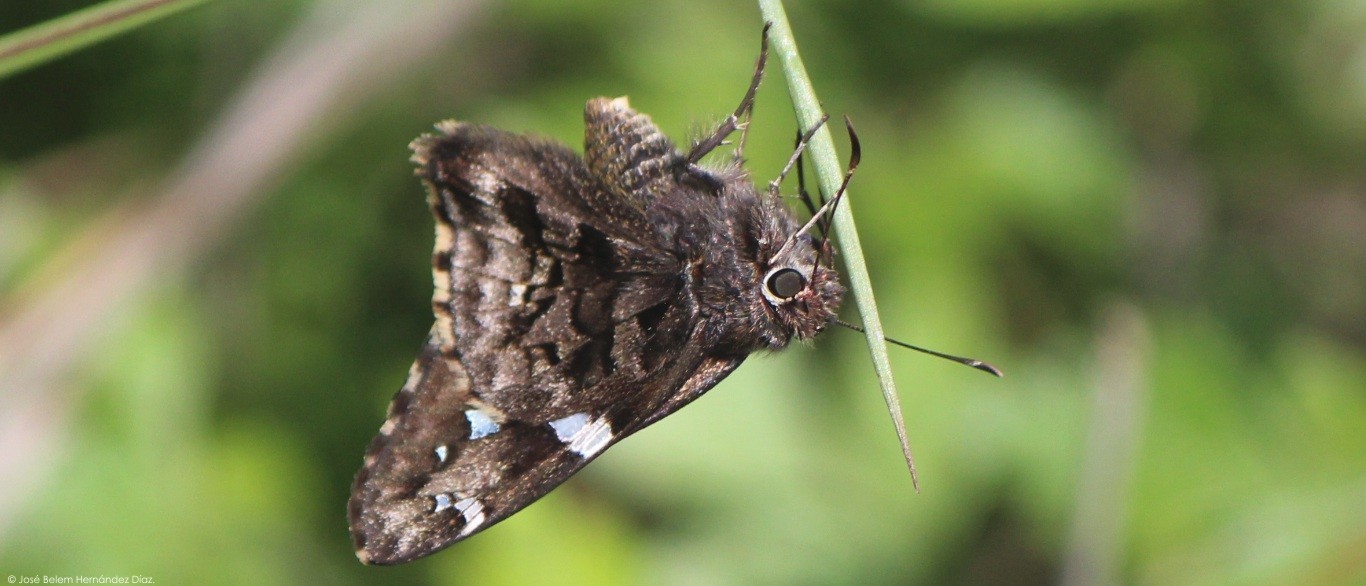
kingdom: Animalia
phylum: Arthropoda
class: Insecta
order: Lepidoptera
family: Hesperiidae
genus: Codatractus
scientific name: Codatractus bryaxis
